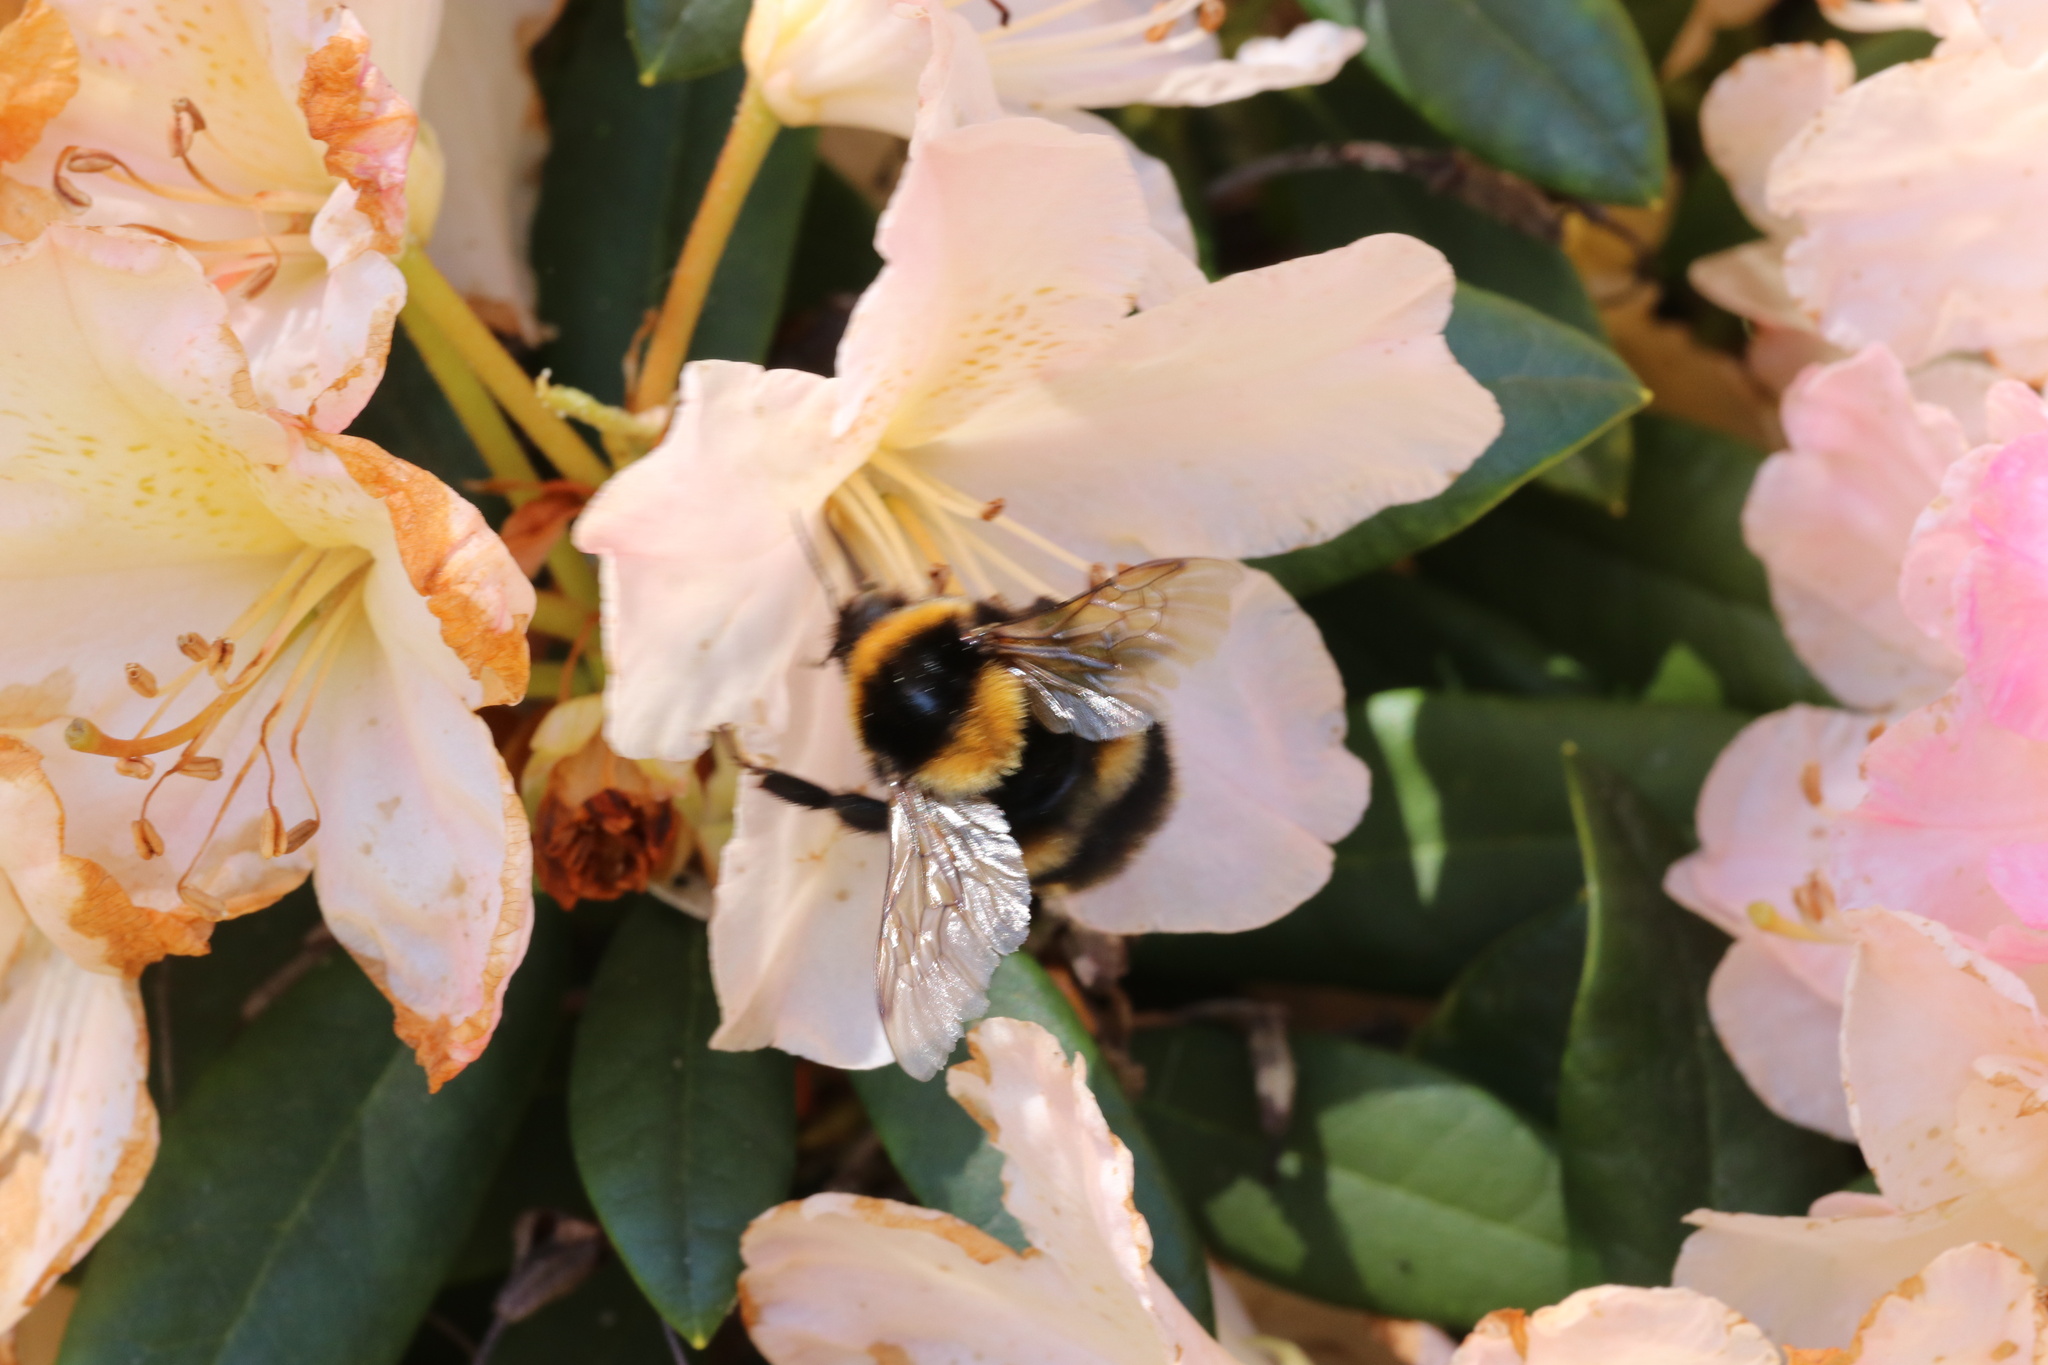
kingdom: Animalia
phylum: Arthropoda
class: Insecta
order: Hymenoptera
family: Apidae
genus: Bombus
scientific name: Bombus ruderatus
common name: Large garden bumblebee
